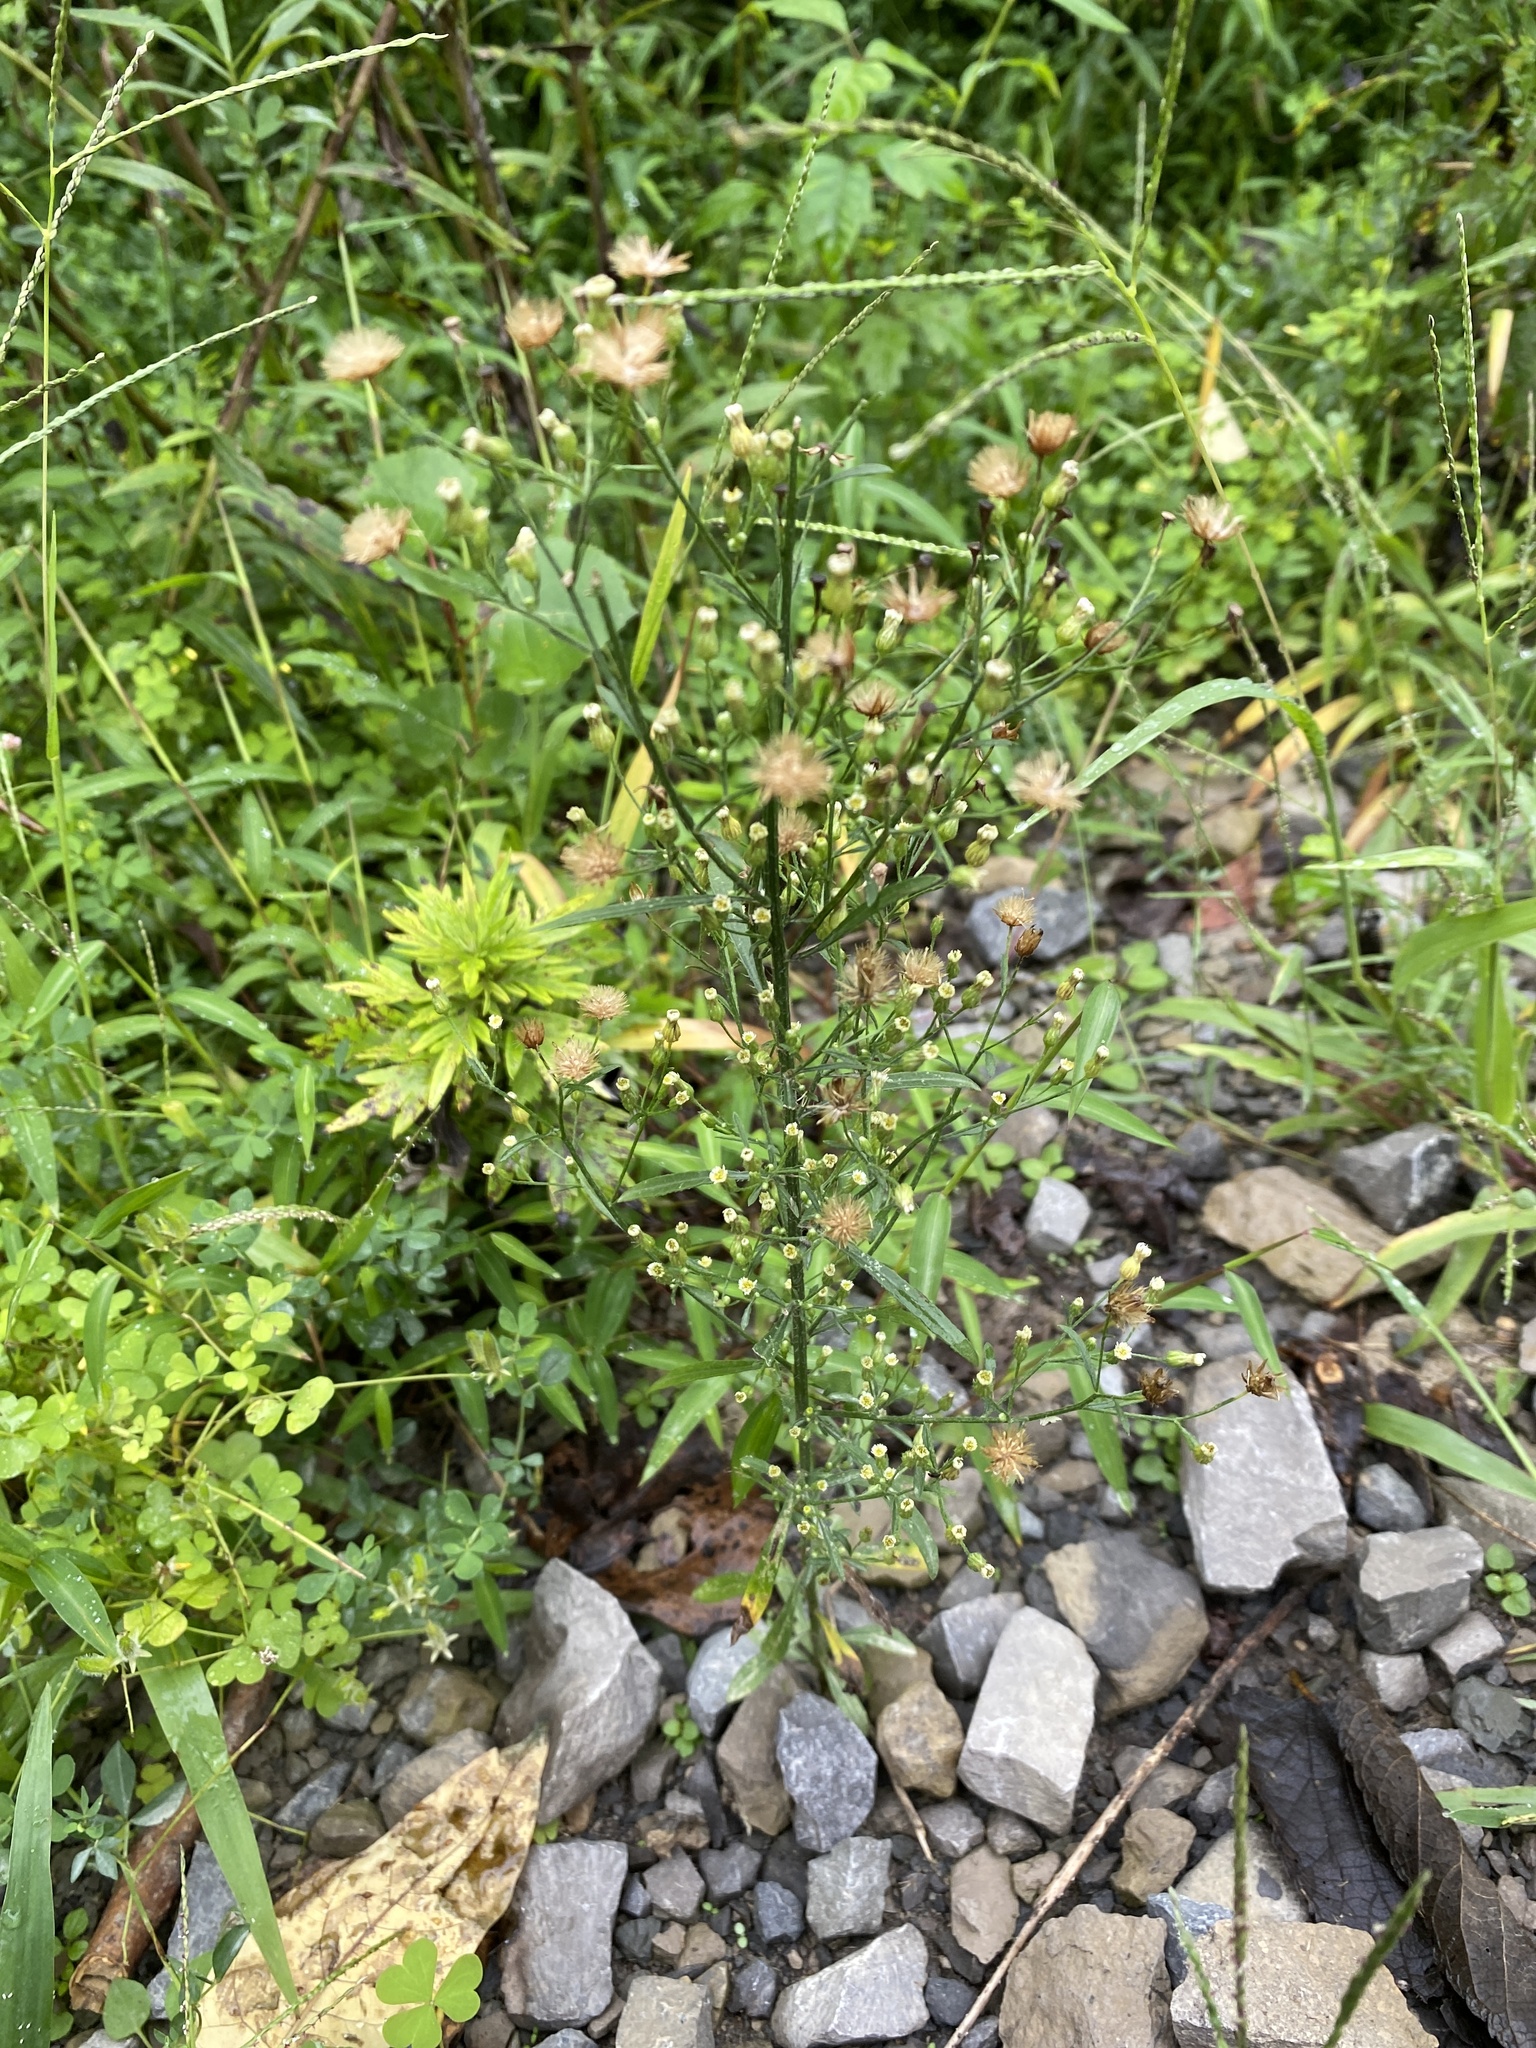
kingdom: Plantae
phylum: Tracheophyta
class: Magnoliopsida
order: Asterales
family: Asteraceae
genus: Erigeron
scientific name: Erigeron canadensis
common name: Canadian fleabane
